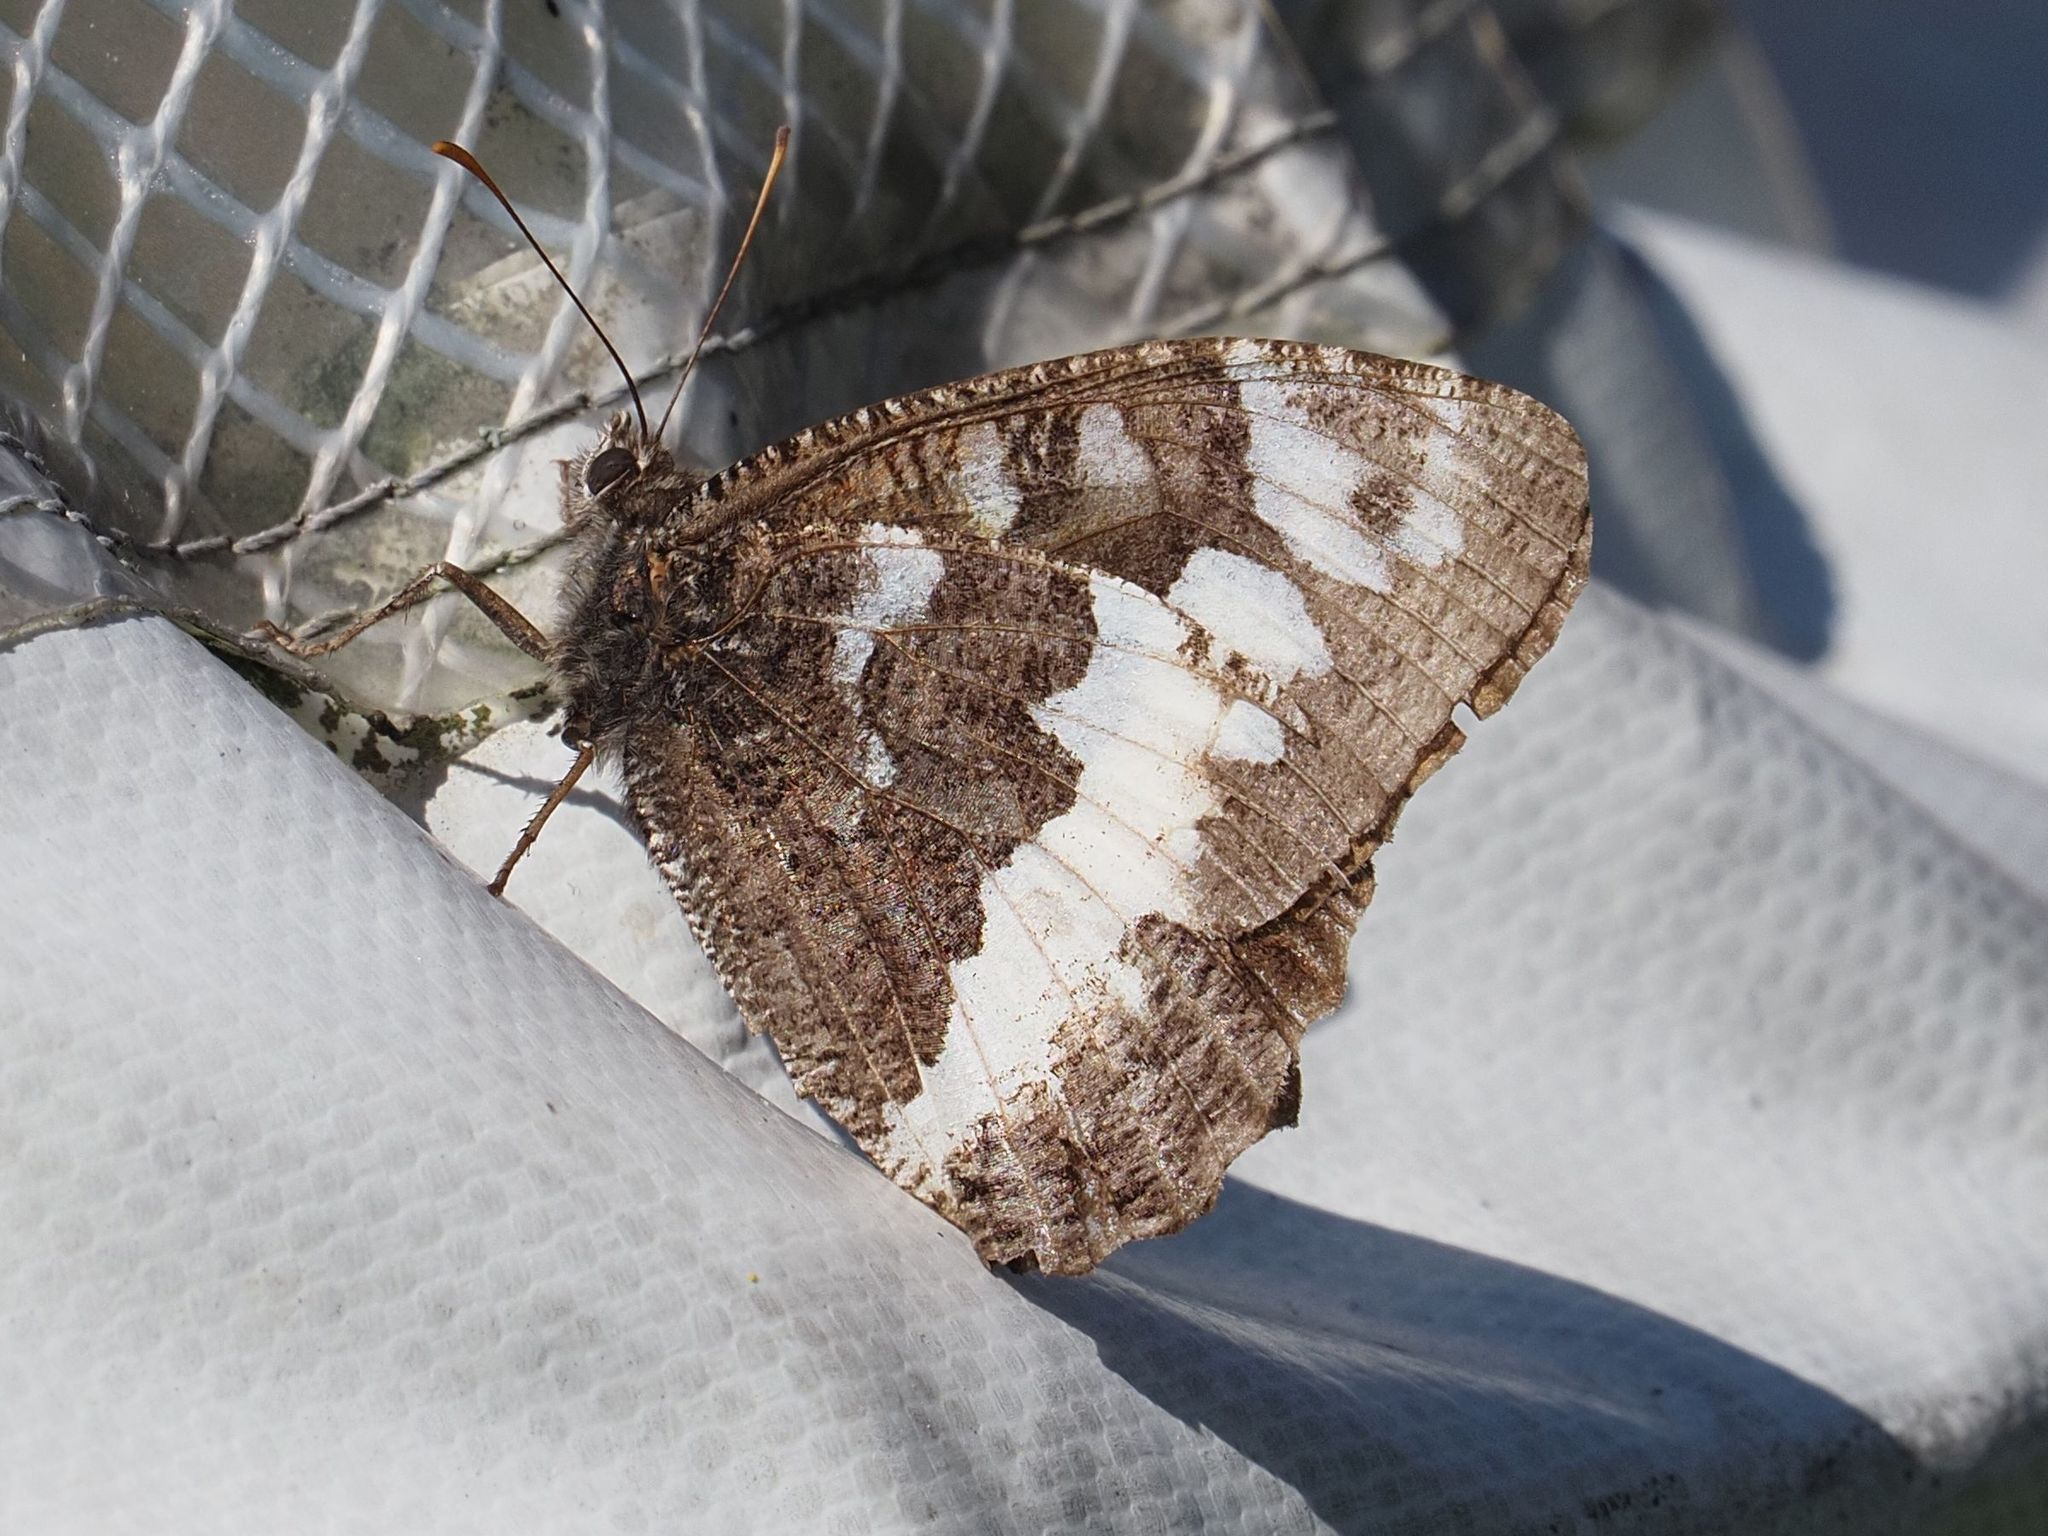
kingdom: Animalia
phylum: Arthropoda
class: Insecta
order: Lepidoptera
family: Lycaenidae
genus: Loweia
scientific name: Loweia tityrus
